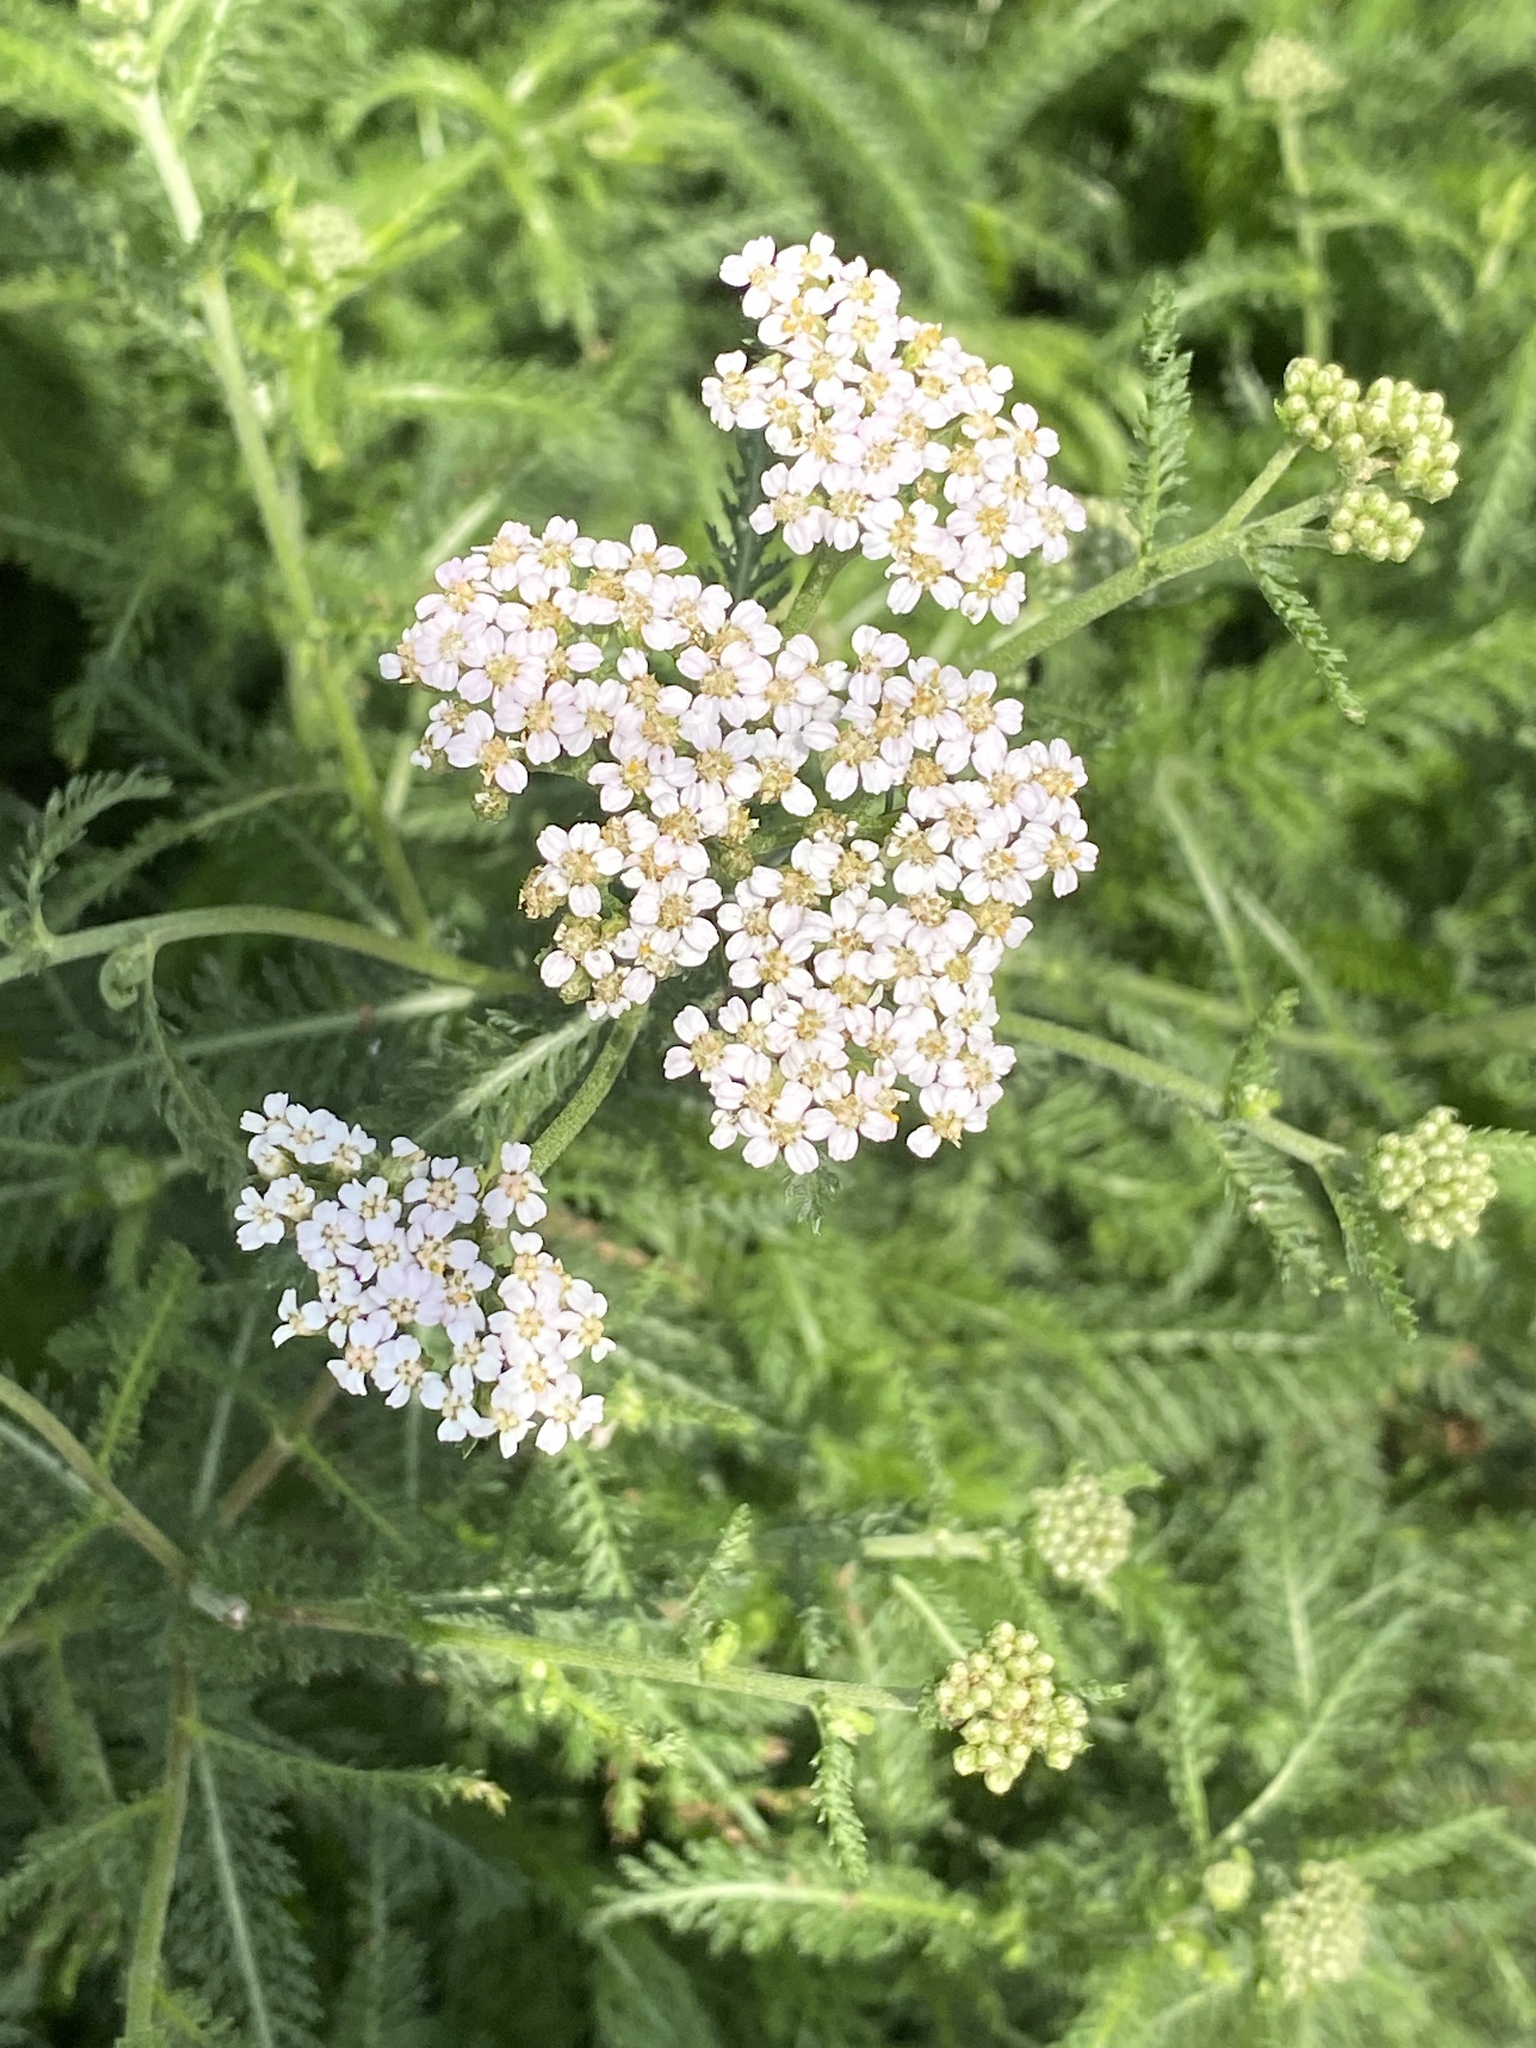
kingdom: Plantae
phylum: Tracheophyta
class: Magnoliopsida
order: Asterales
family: Asteraceae
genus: Achillea
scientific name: Achillea millefolium
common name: Yarrow
